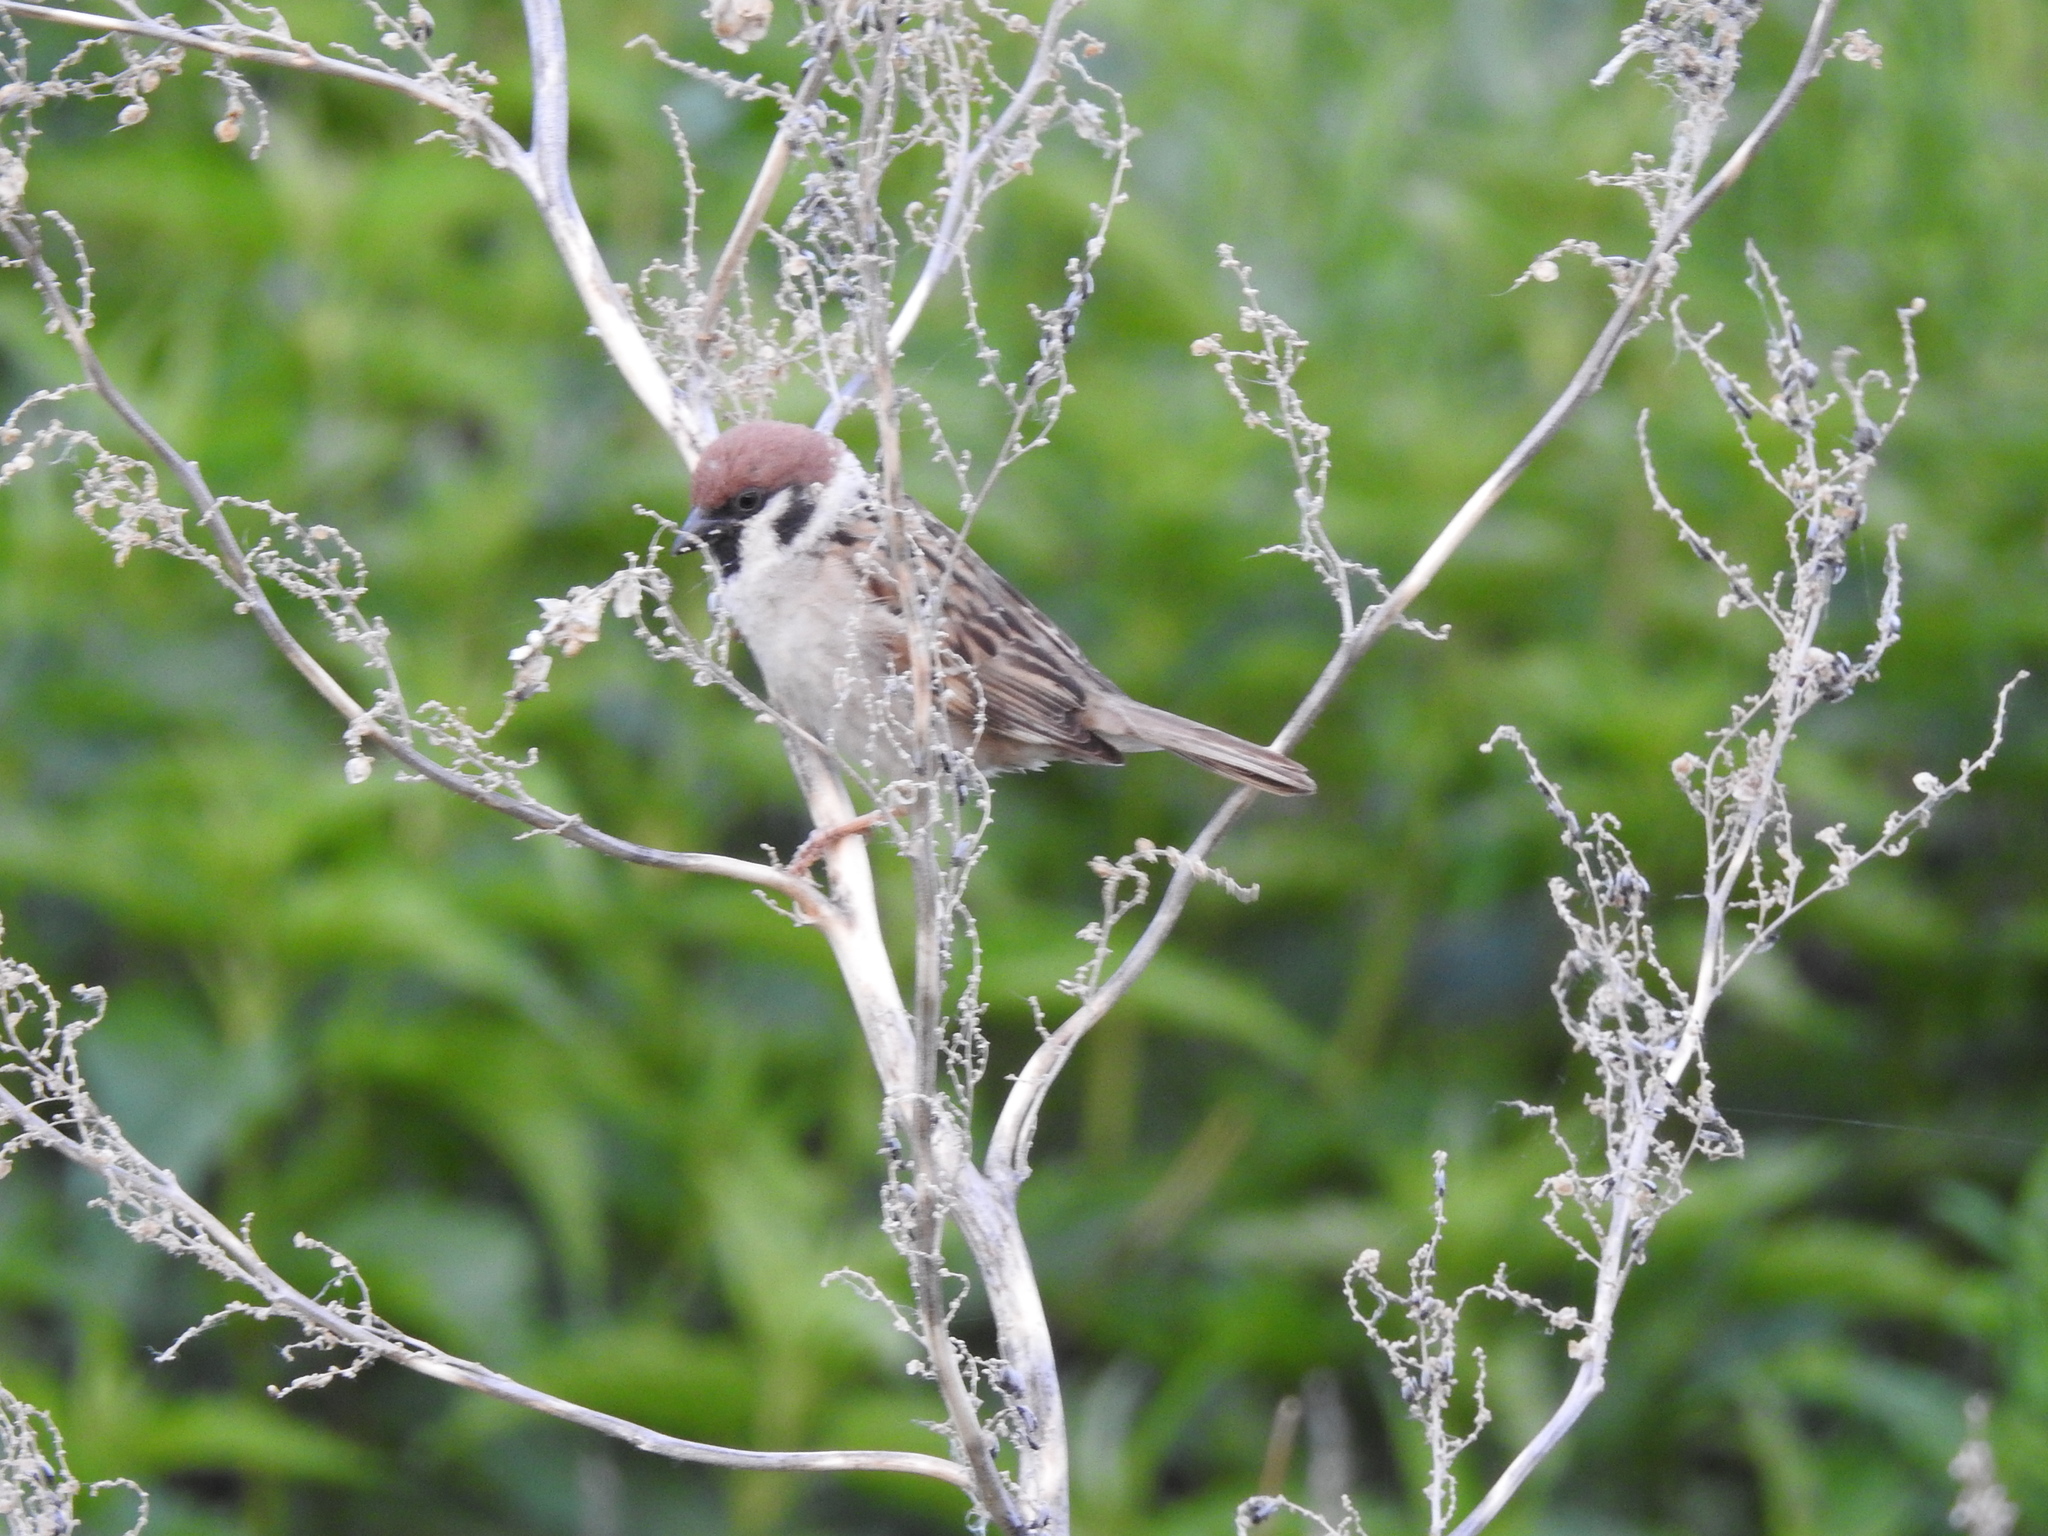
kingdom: Animalia
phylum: Chordata
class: Aves
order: Passeriformes
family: Passeridae
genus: Passer
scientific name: Passer montanus
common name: Eurasian tree sparrow
